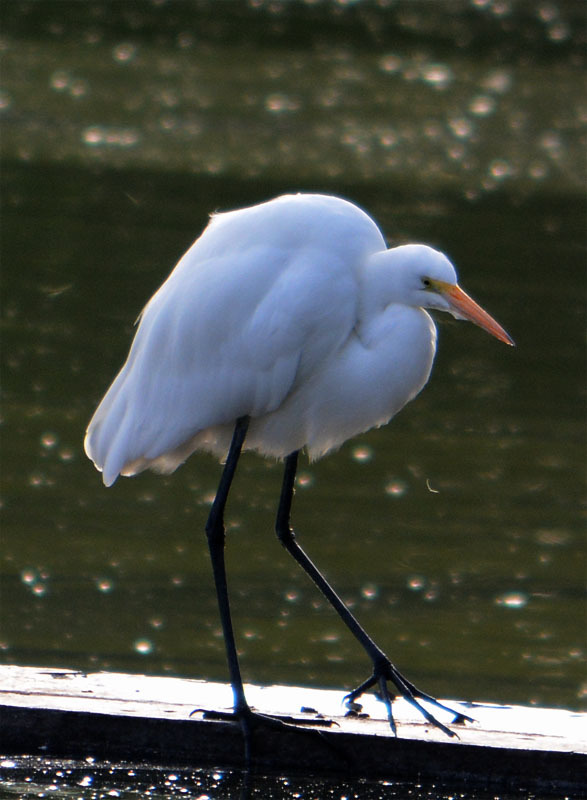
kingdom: Animalia
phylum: Chordata
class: Aves
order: Pelecaniformes
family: Ardeidae
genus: Ardea
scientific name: Ardea alba
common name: Great egret
